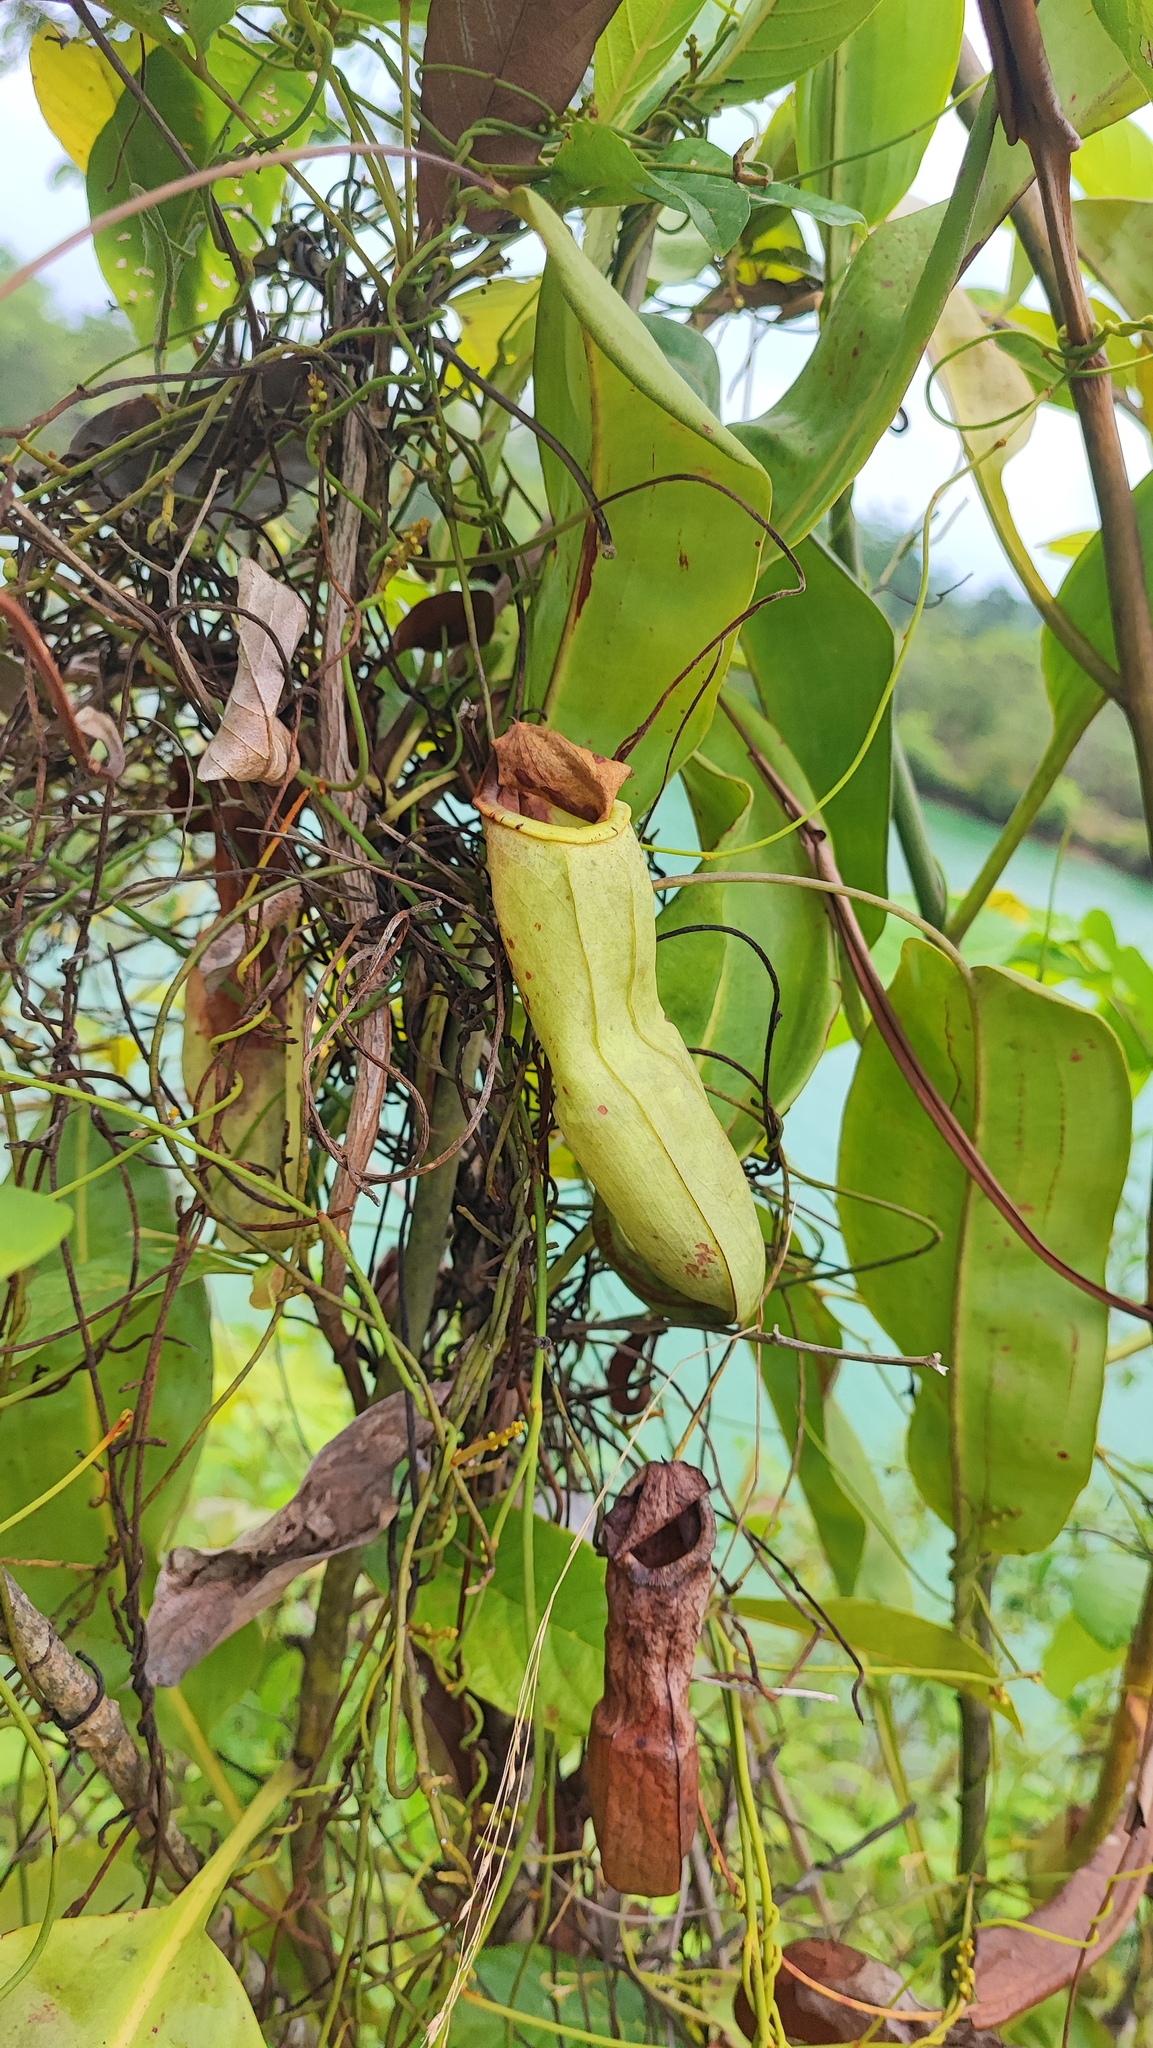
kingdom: Plantae
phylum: Tracheophyta
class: Magnoliopsida
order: Caryophyllales
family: Nepenthaceae
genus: Nepenthes
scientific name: Nepenthes mirabilis
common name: Tropical pitcherplant
